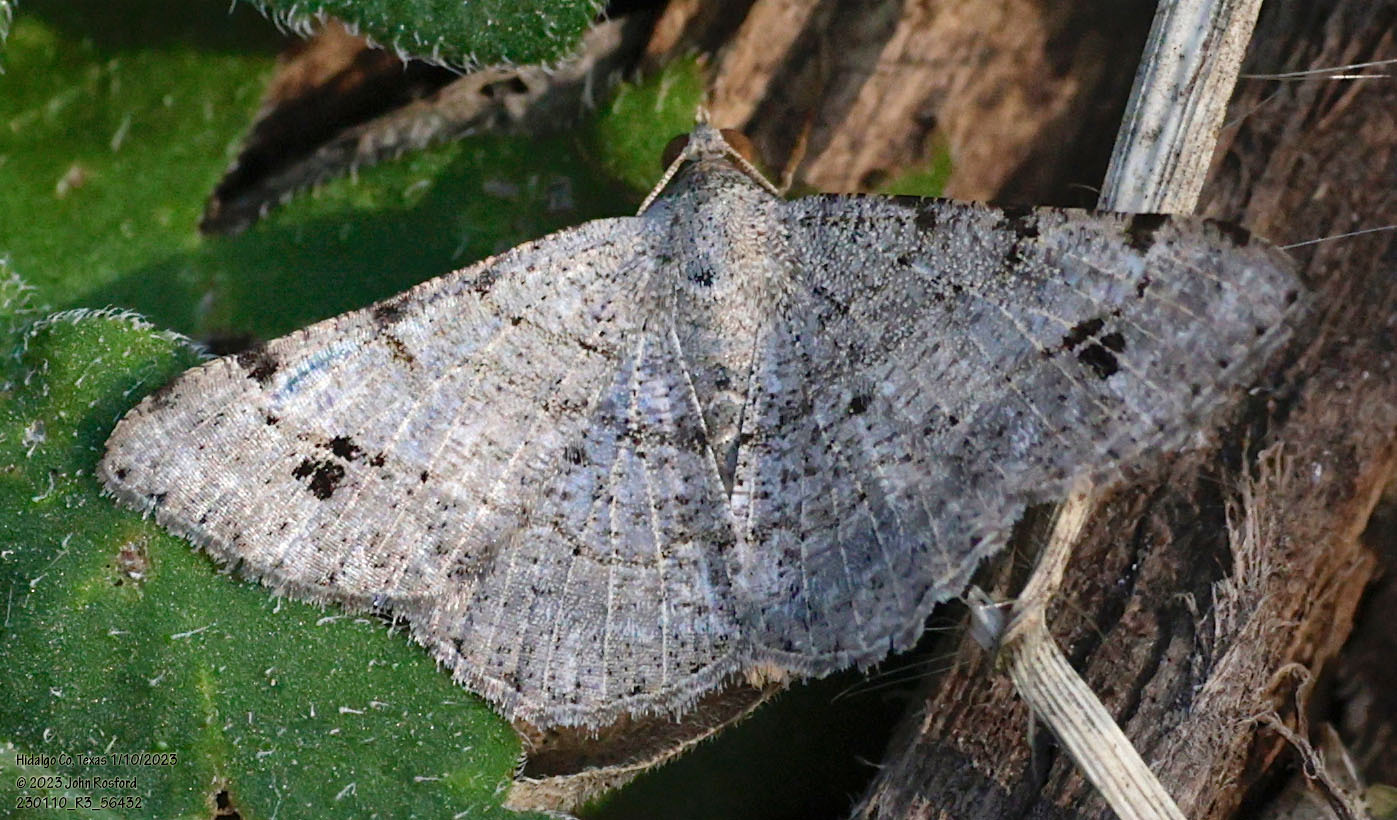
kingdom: Animalia
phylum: Arthropoda
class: Insecta
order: Lepidoptera
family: Geometridae
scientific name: Geometridae
